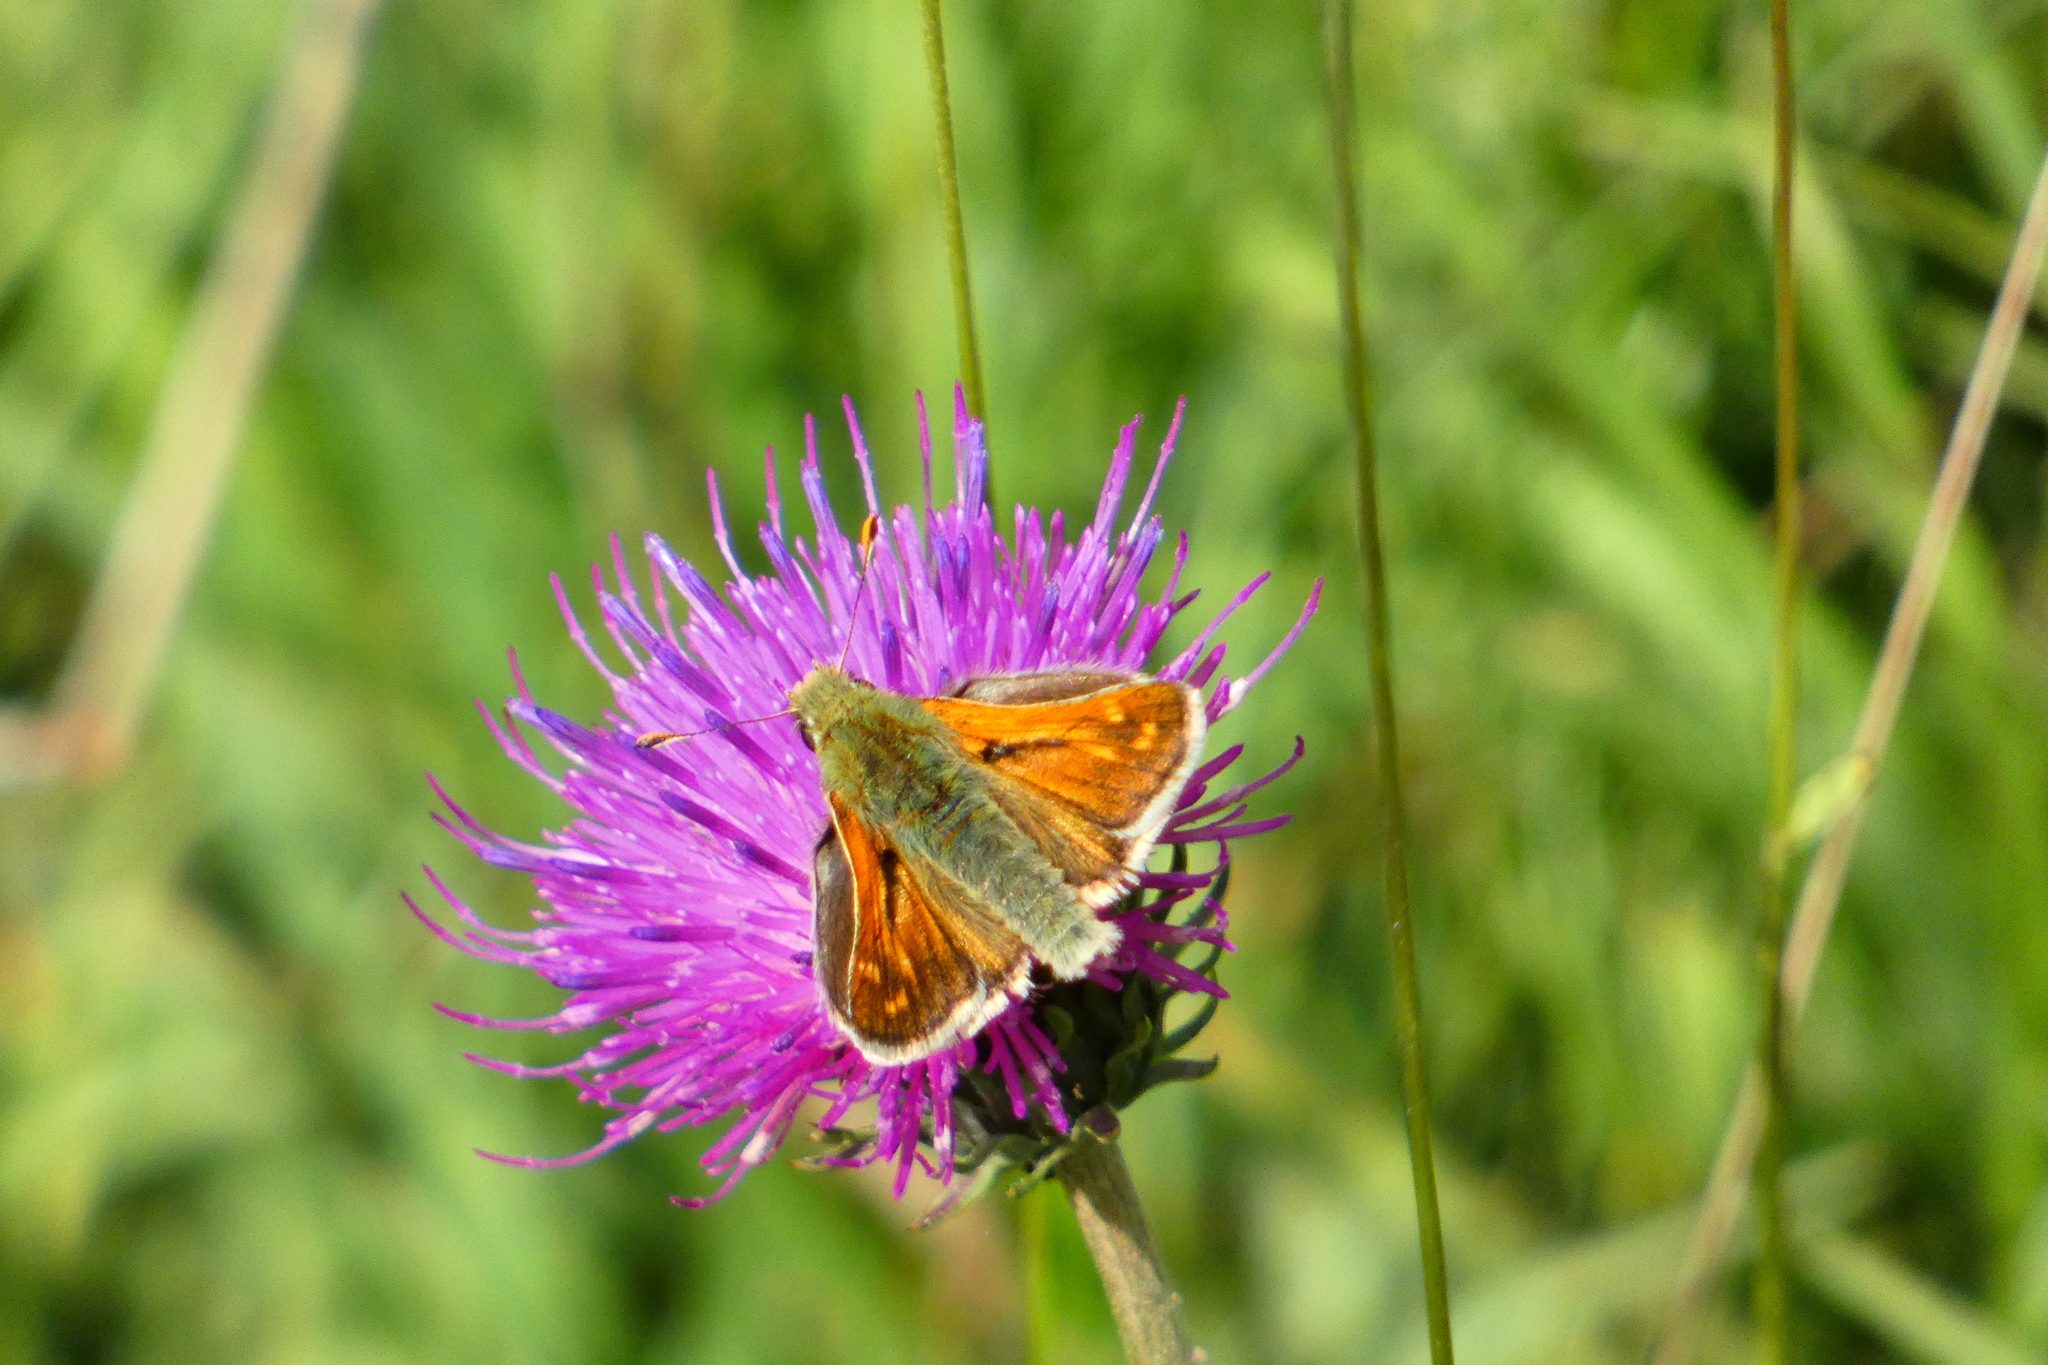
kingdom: Animalia
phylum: Arthropoda
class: Insecta
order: Lepidoptera
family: Hesperiidae
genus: Hesperia
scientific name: Hesperia comma
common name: Common branded skipper
